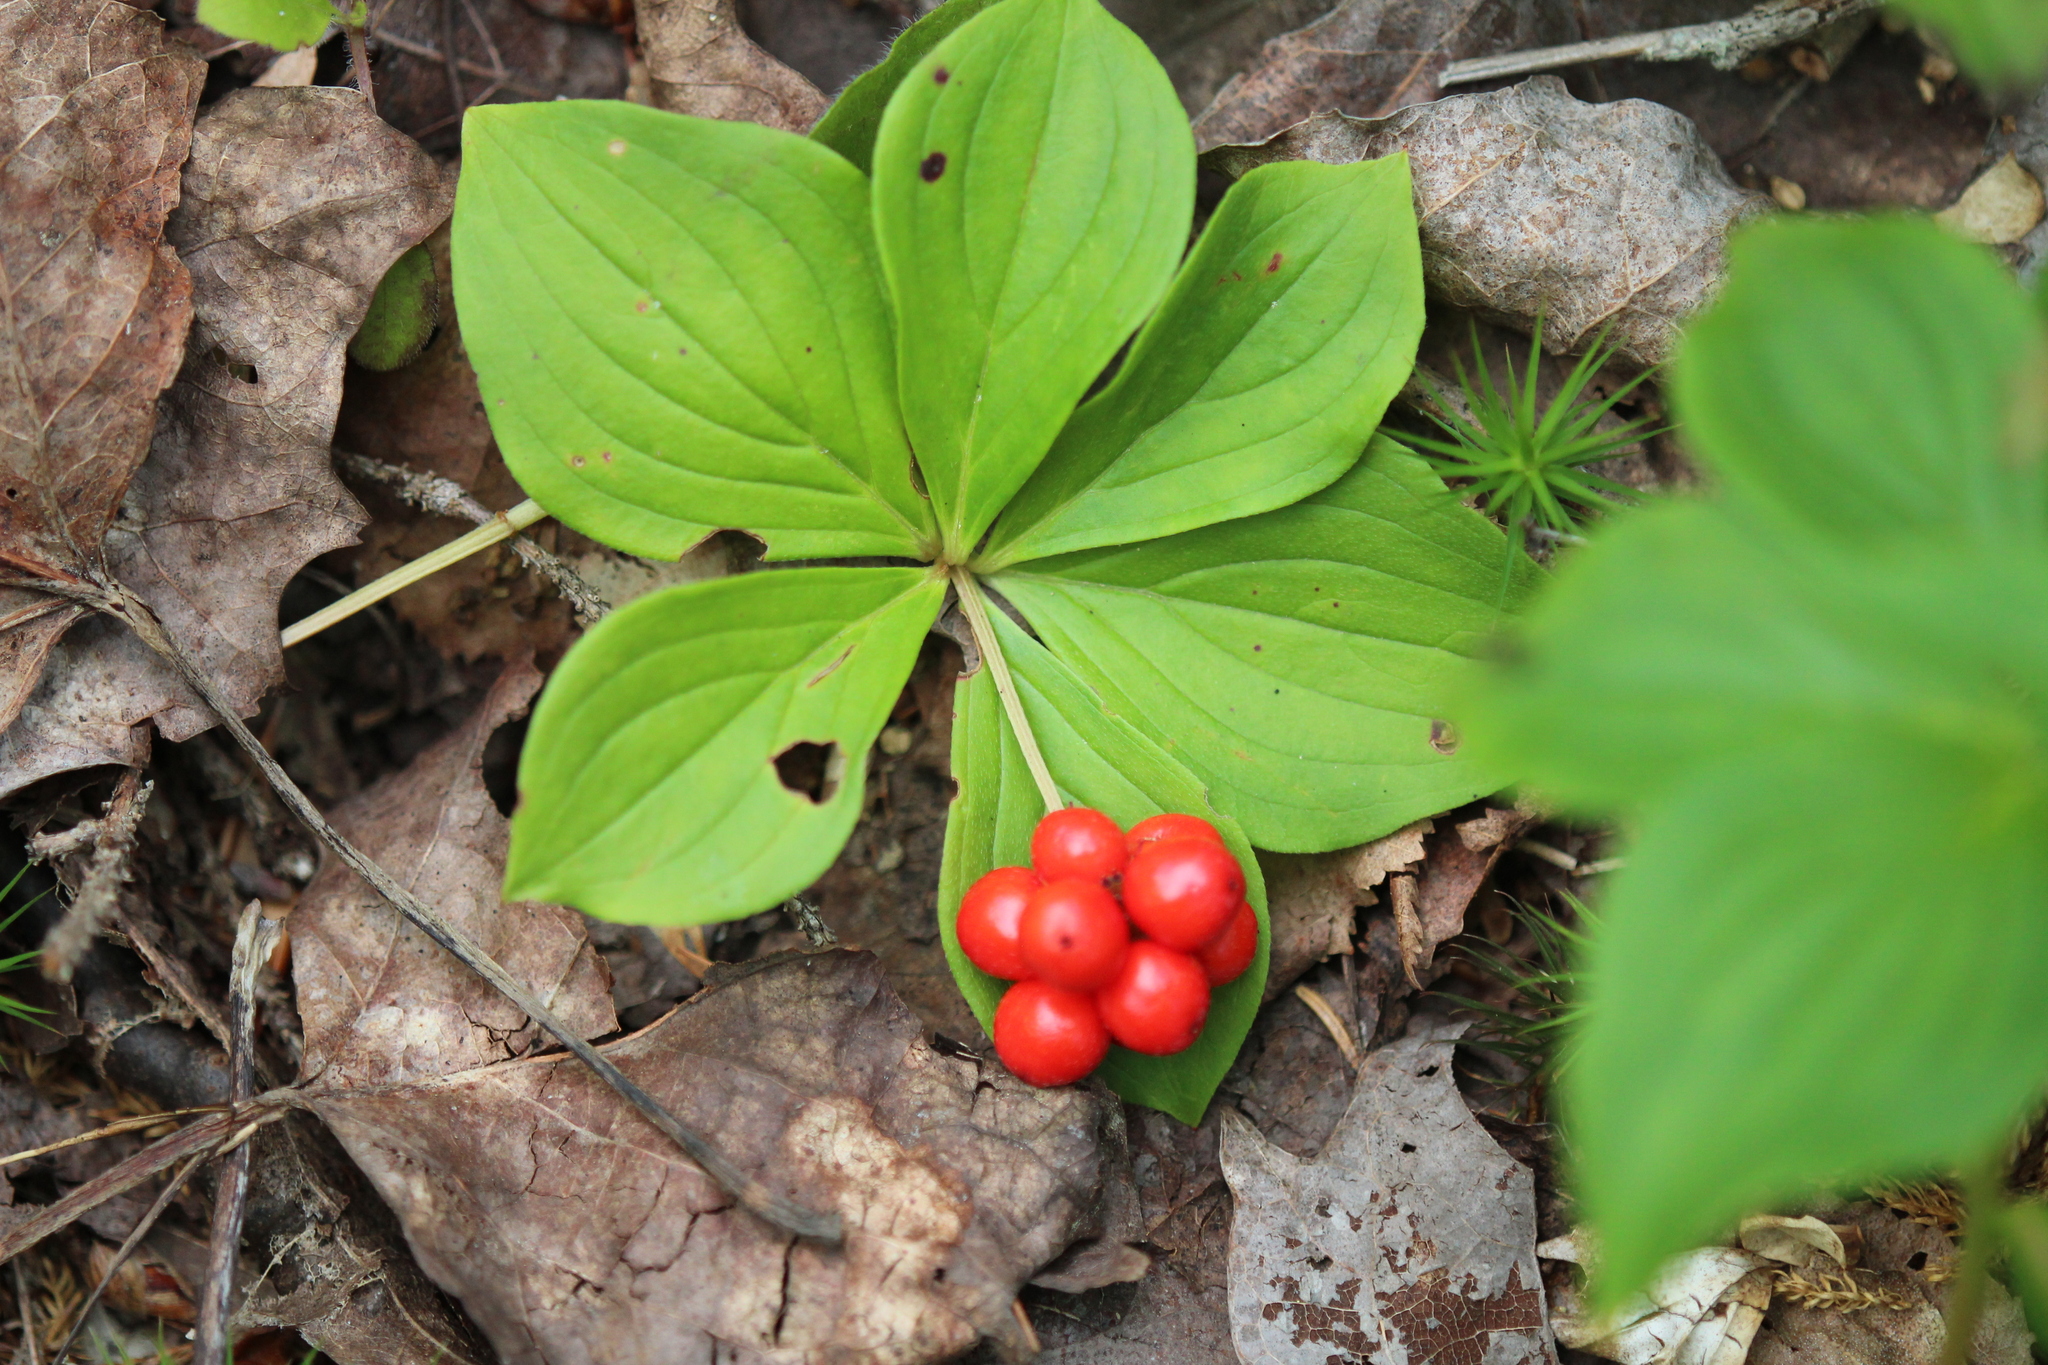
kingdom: Plantae
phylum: Tracheophyta
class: Magnoliopsida
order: Cornales
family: Cornaceae
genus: Cornus
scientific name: Cornus canadensis
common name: Creeping dogwood
